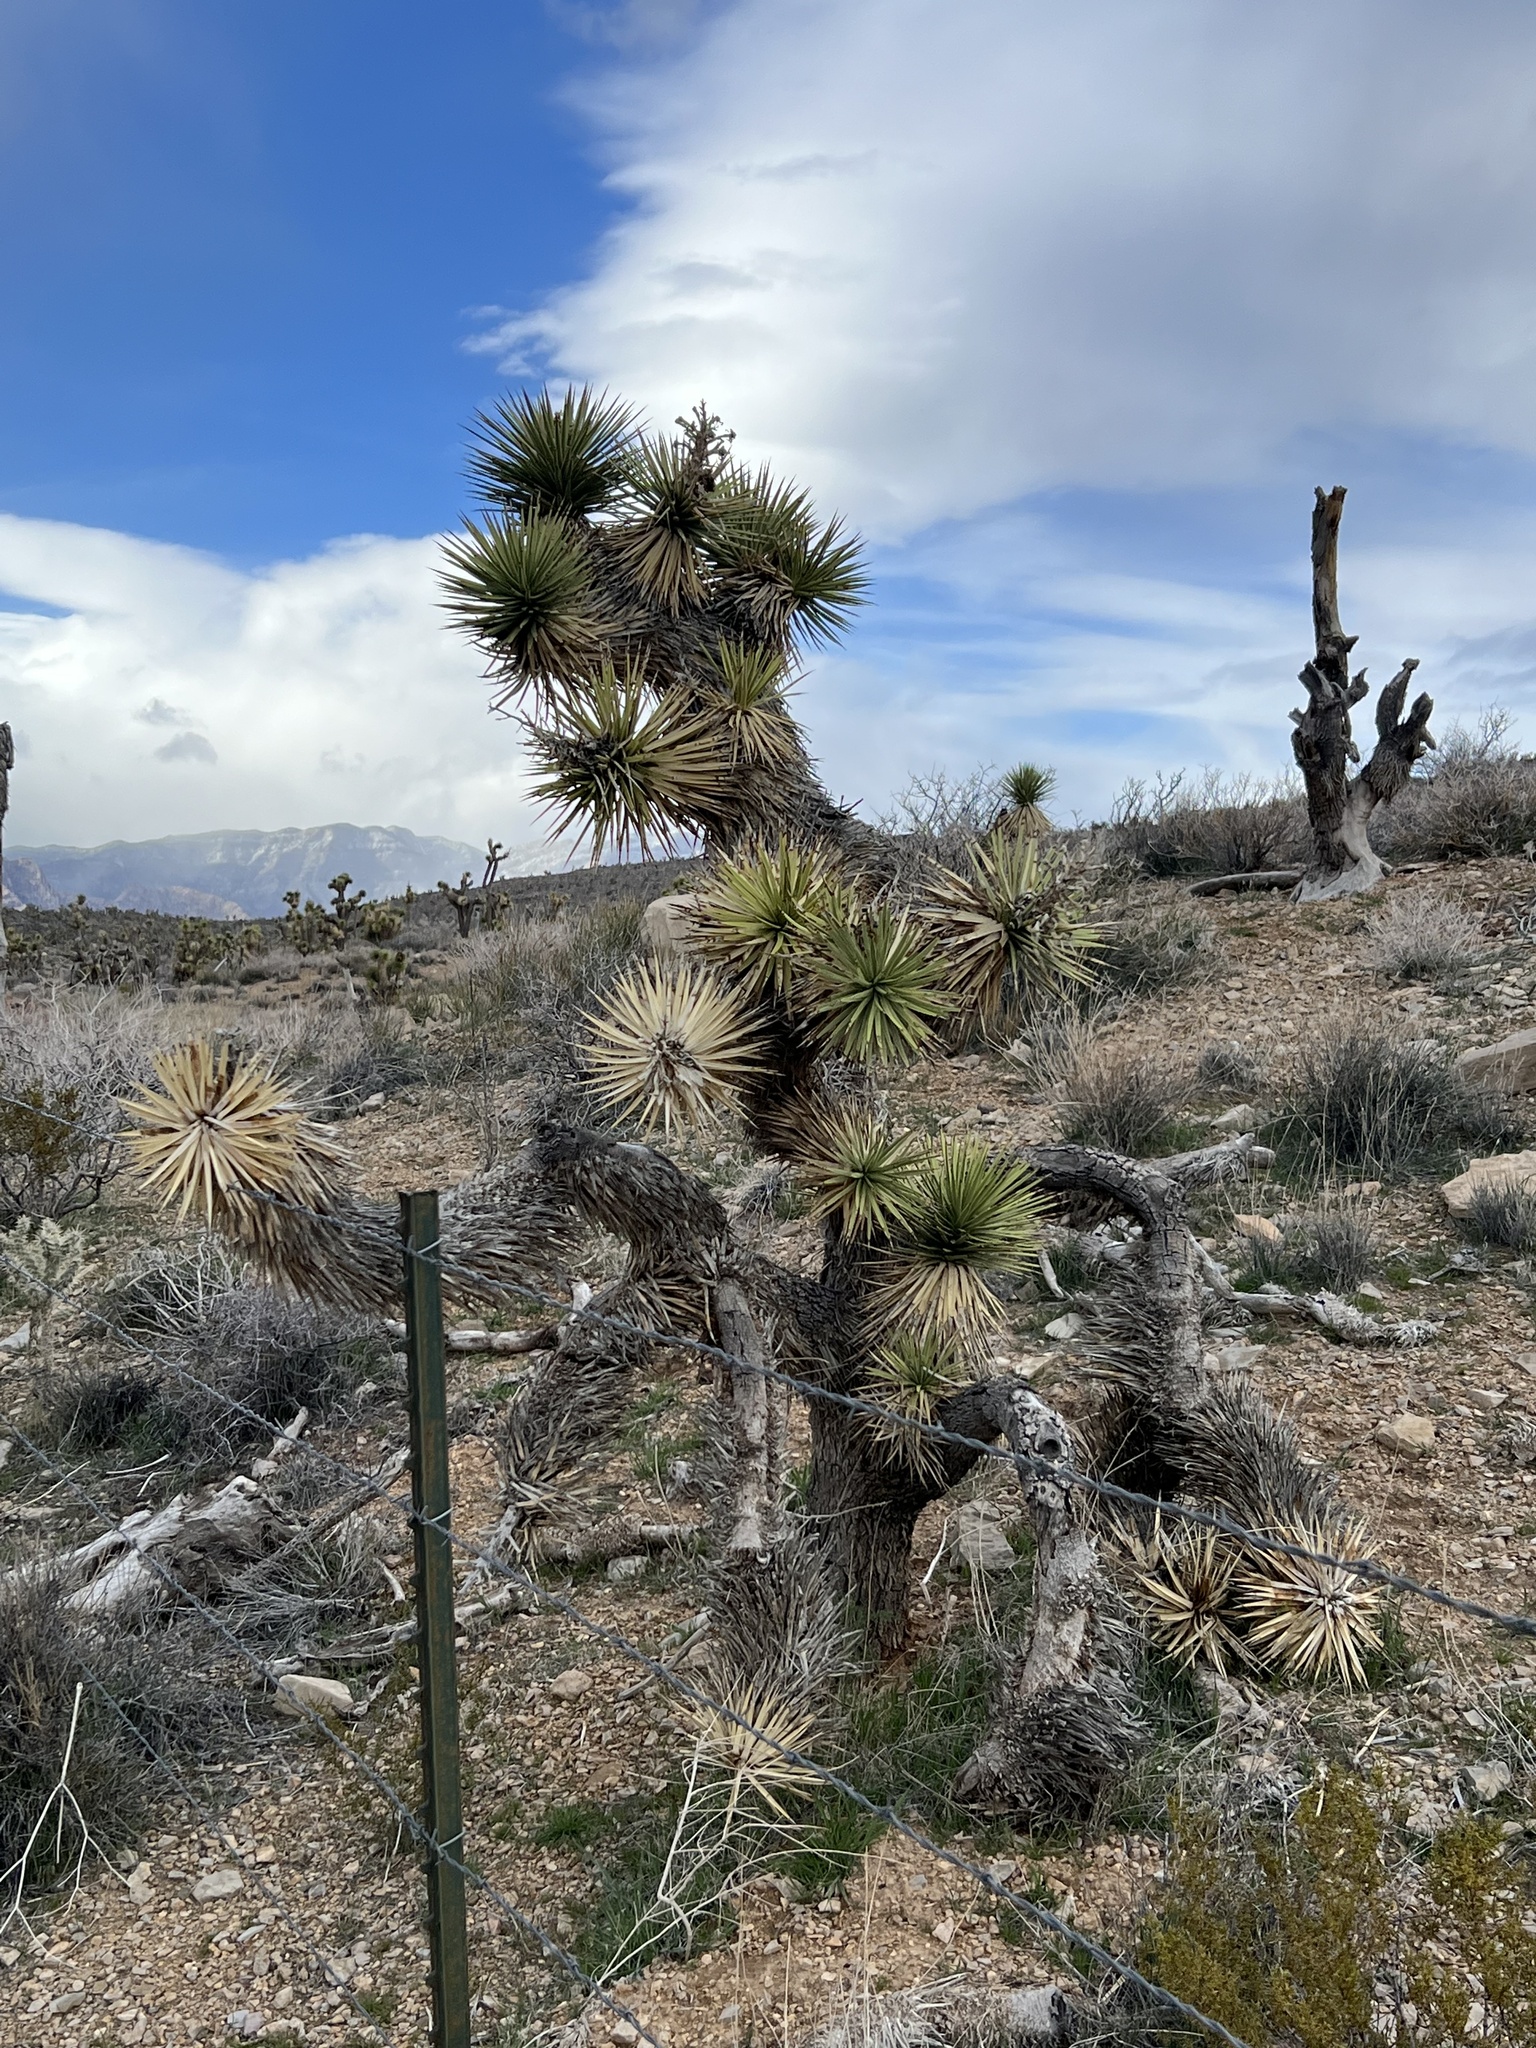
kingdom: Plantae
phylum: Tracheophyta
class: Liliopsida
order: Asparagales
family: Asparagaceae
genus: Yucca
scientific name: Yucca brevifolia
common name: Joshua tree
